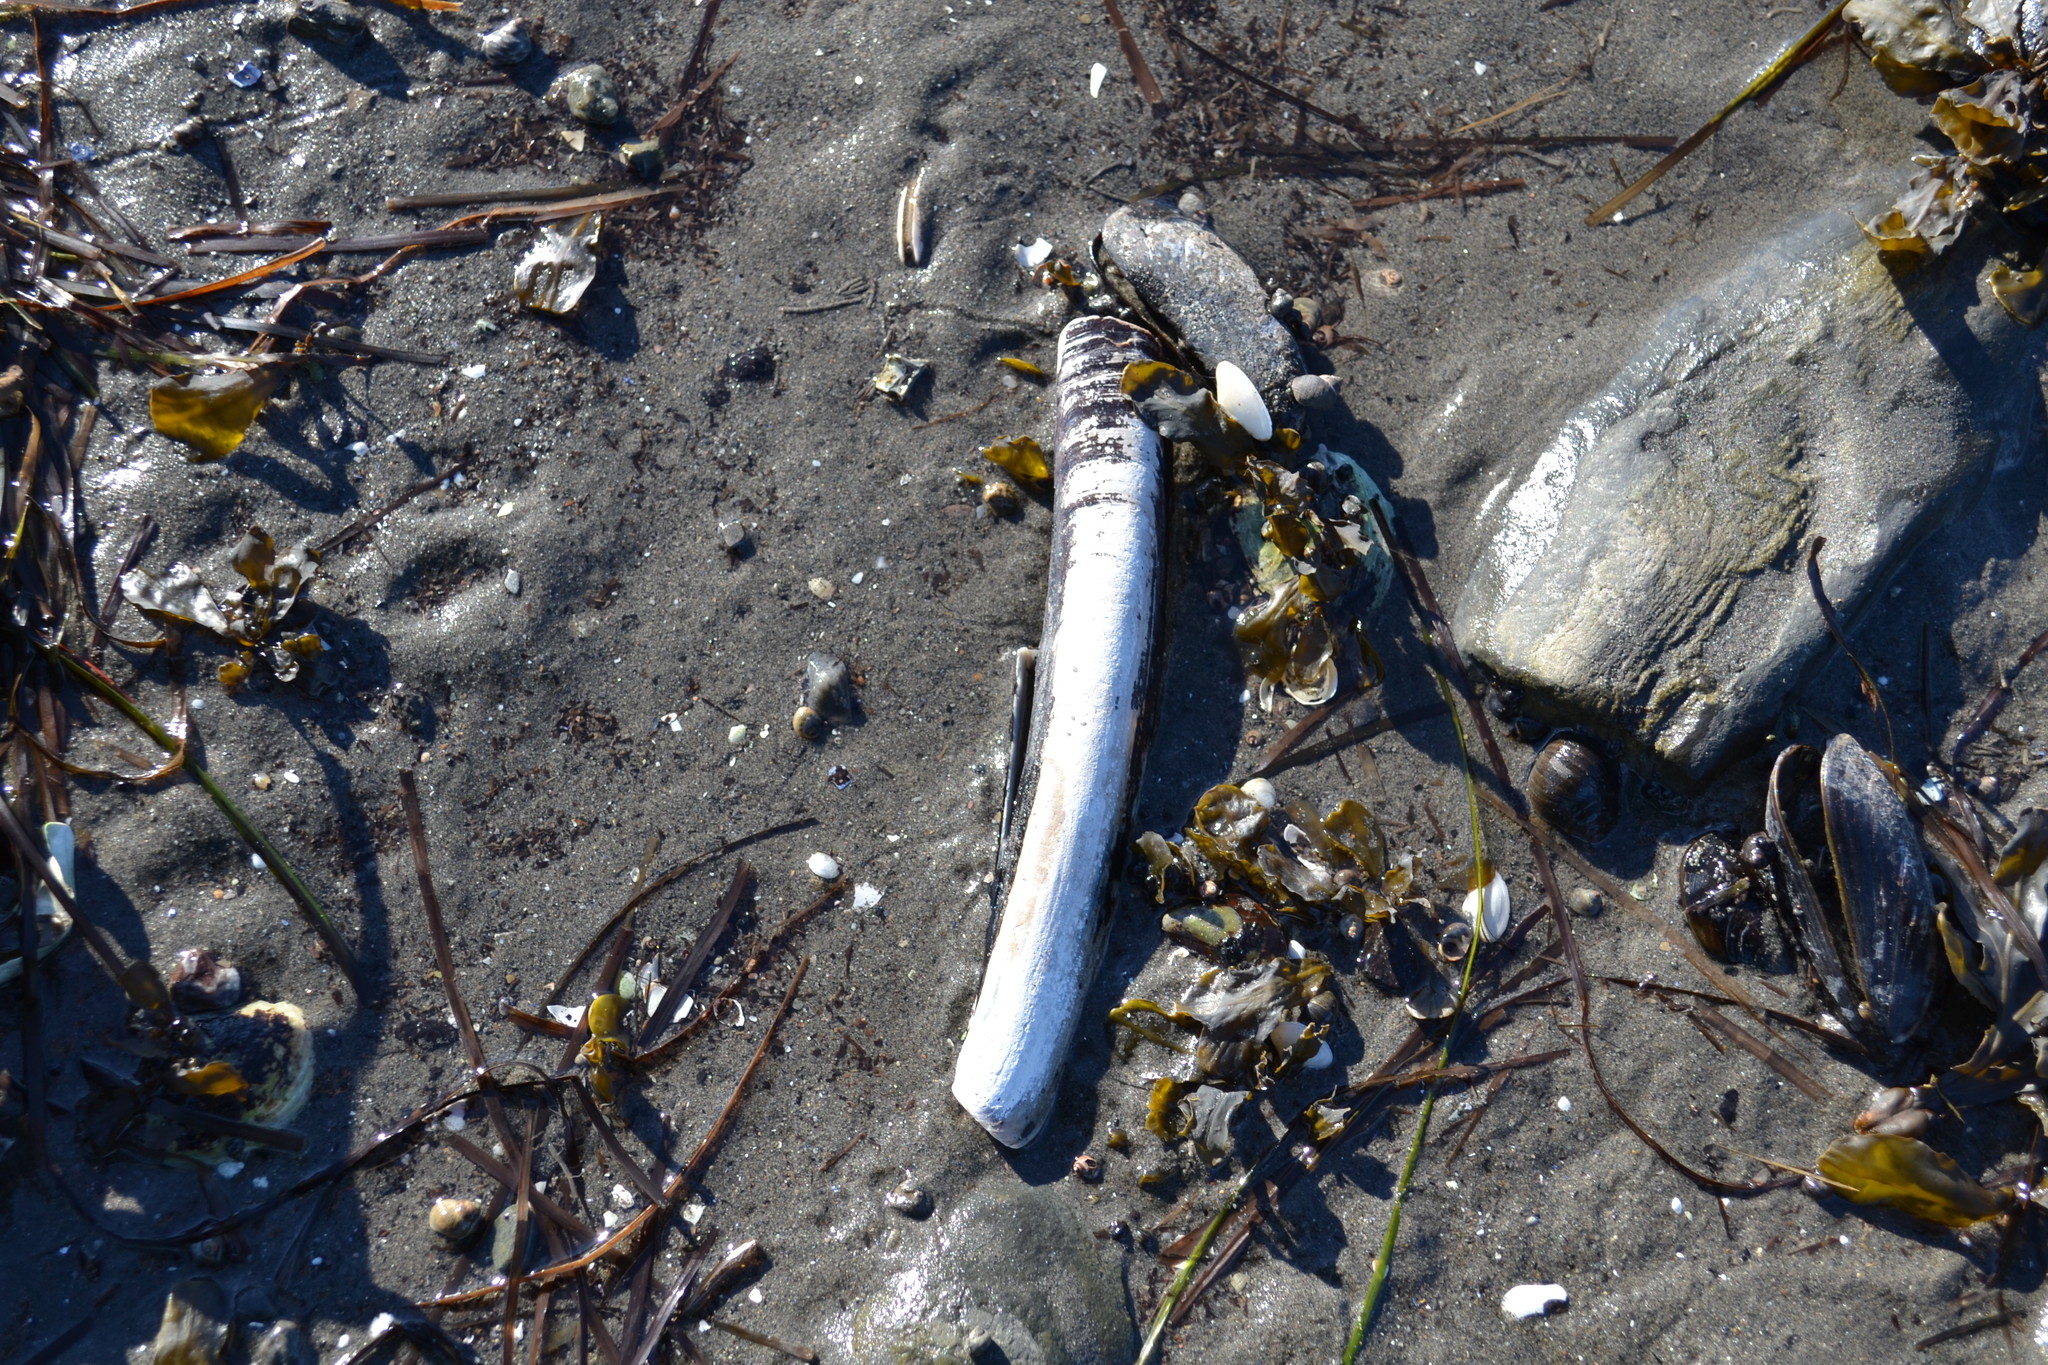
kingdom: Animalia
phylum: Mollusca
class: Bivalvia
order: Adapedonta
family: Pharidae
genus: Ensis
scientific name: Ensis leei
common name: American jack knife clam
